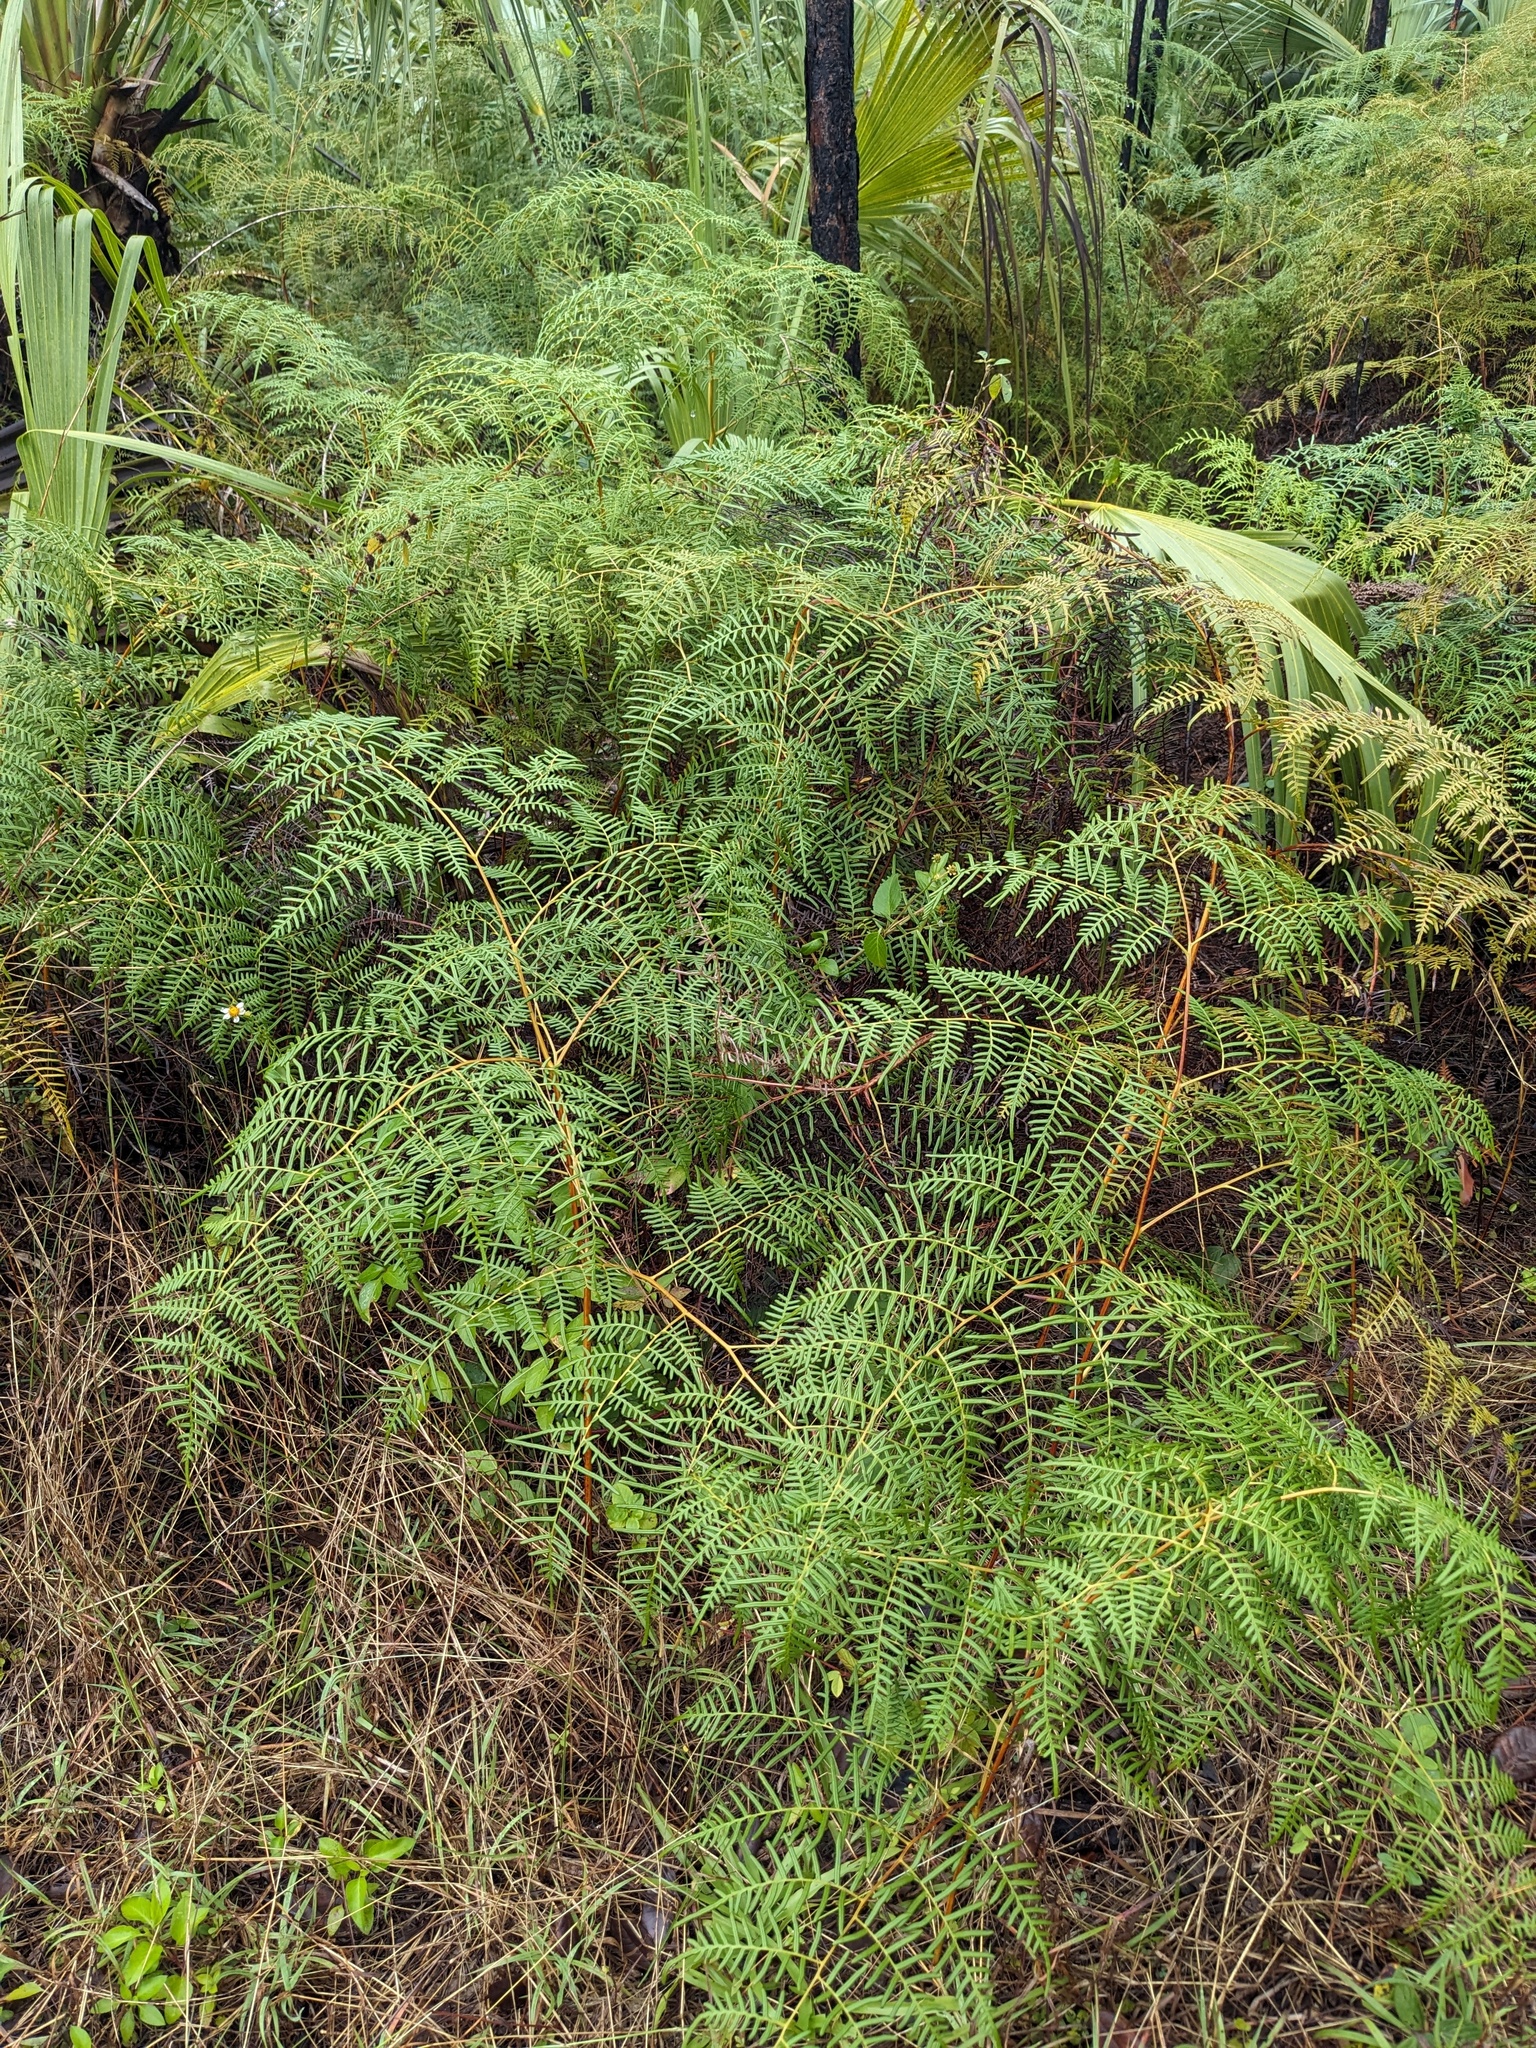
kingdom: Plantae
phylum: Tracheophyta
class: Polypodiopsida
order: Polypodiales
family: Dennstaedtiaceae
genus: Pteridium
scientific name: Pteridium caudatum
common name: Southern bracken fern
